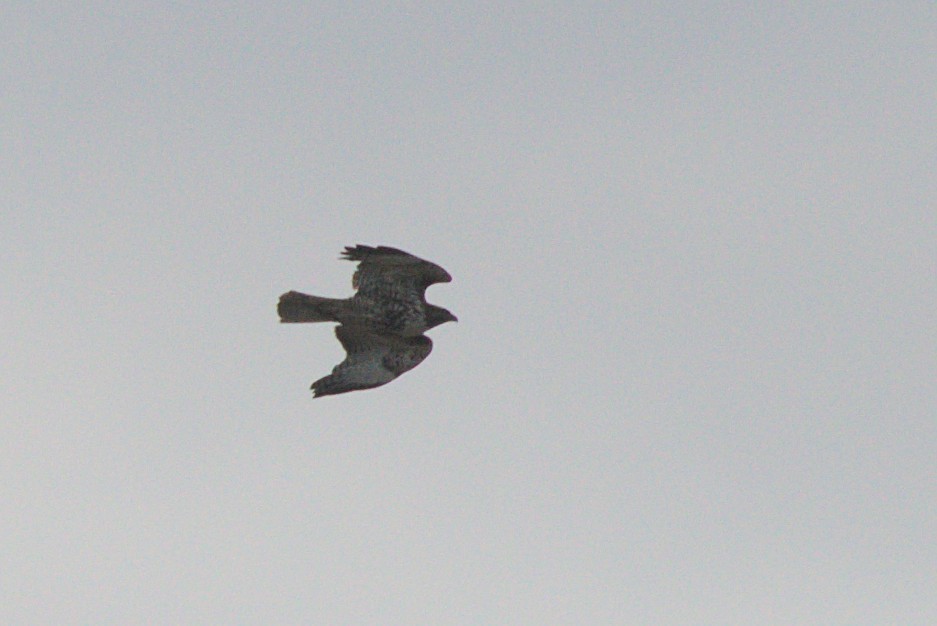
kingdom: Animalia
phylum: Chordata
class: Aves
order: Accipitriformes
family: Accipitridae
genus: Buteo
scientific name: Buteo jamaicensis
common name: Red-tailed hawk
